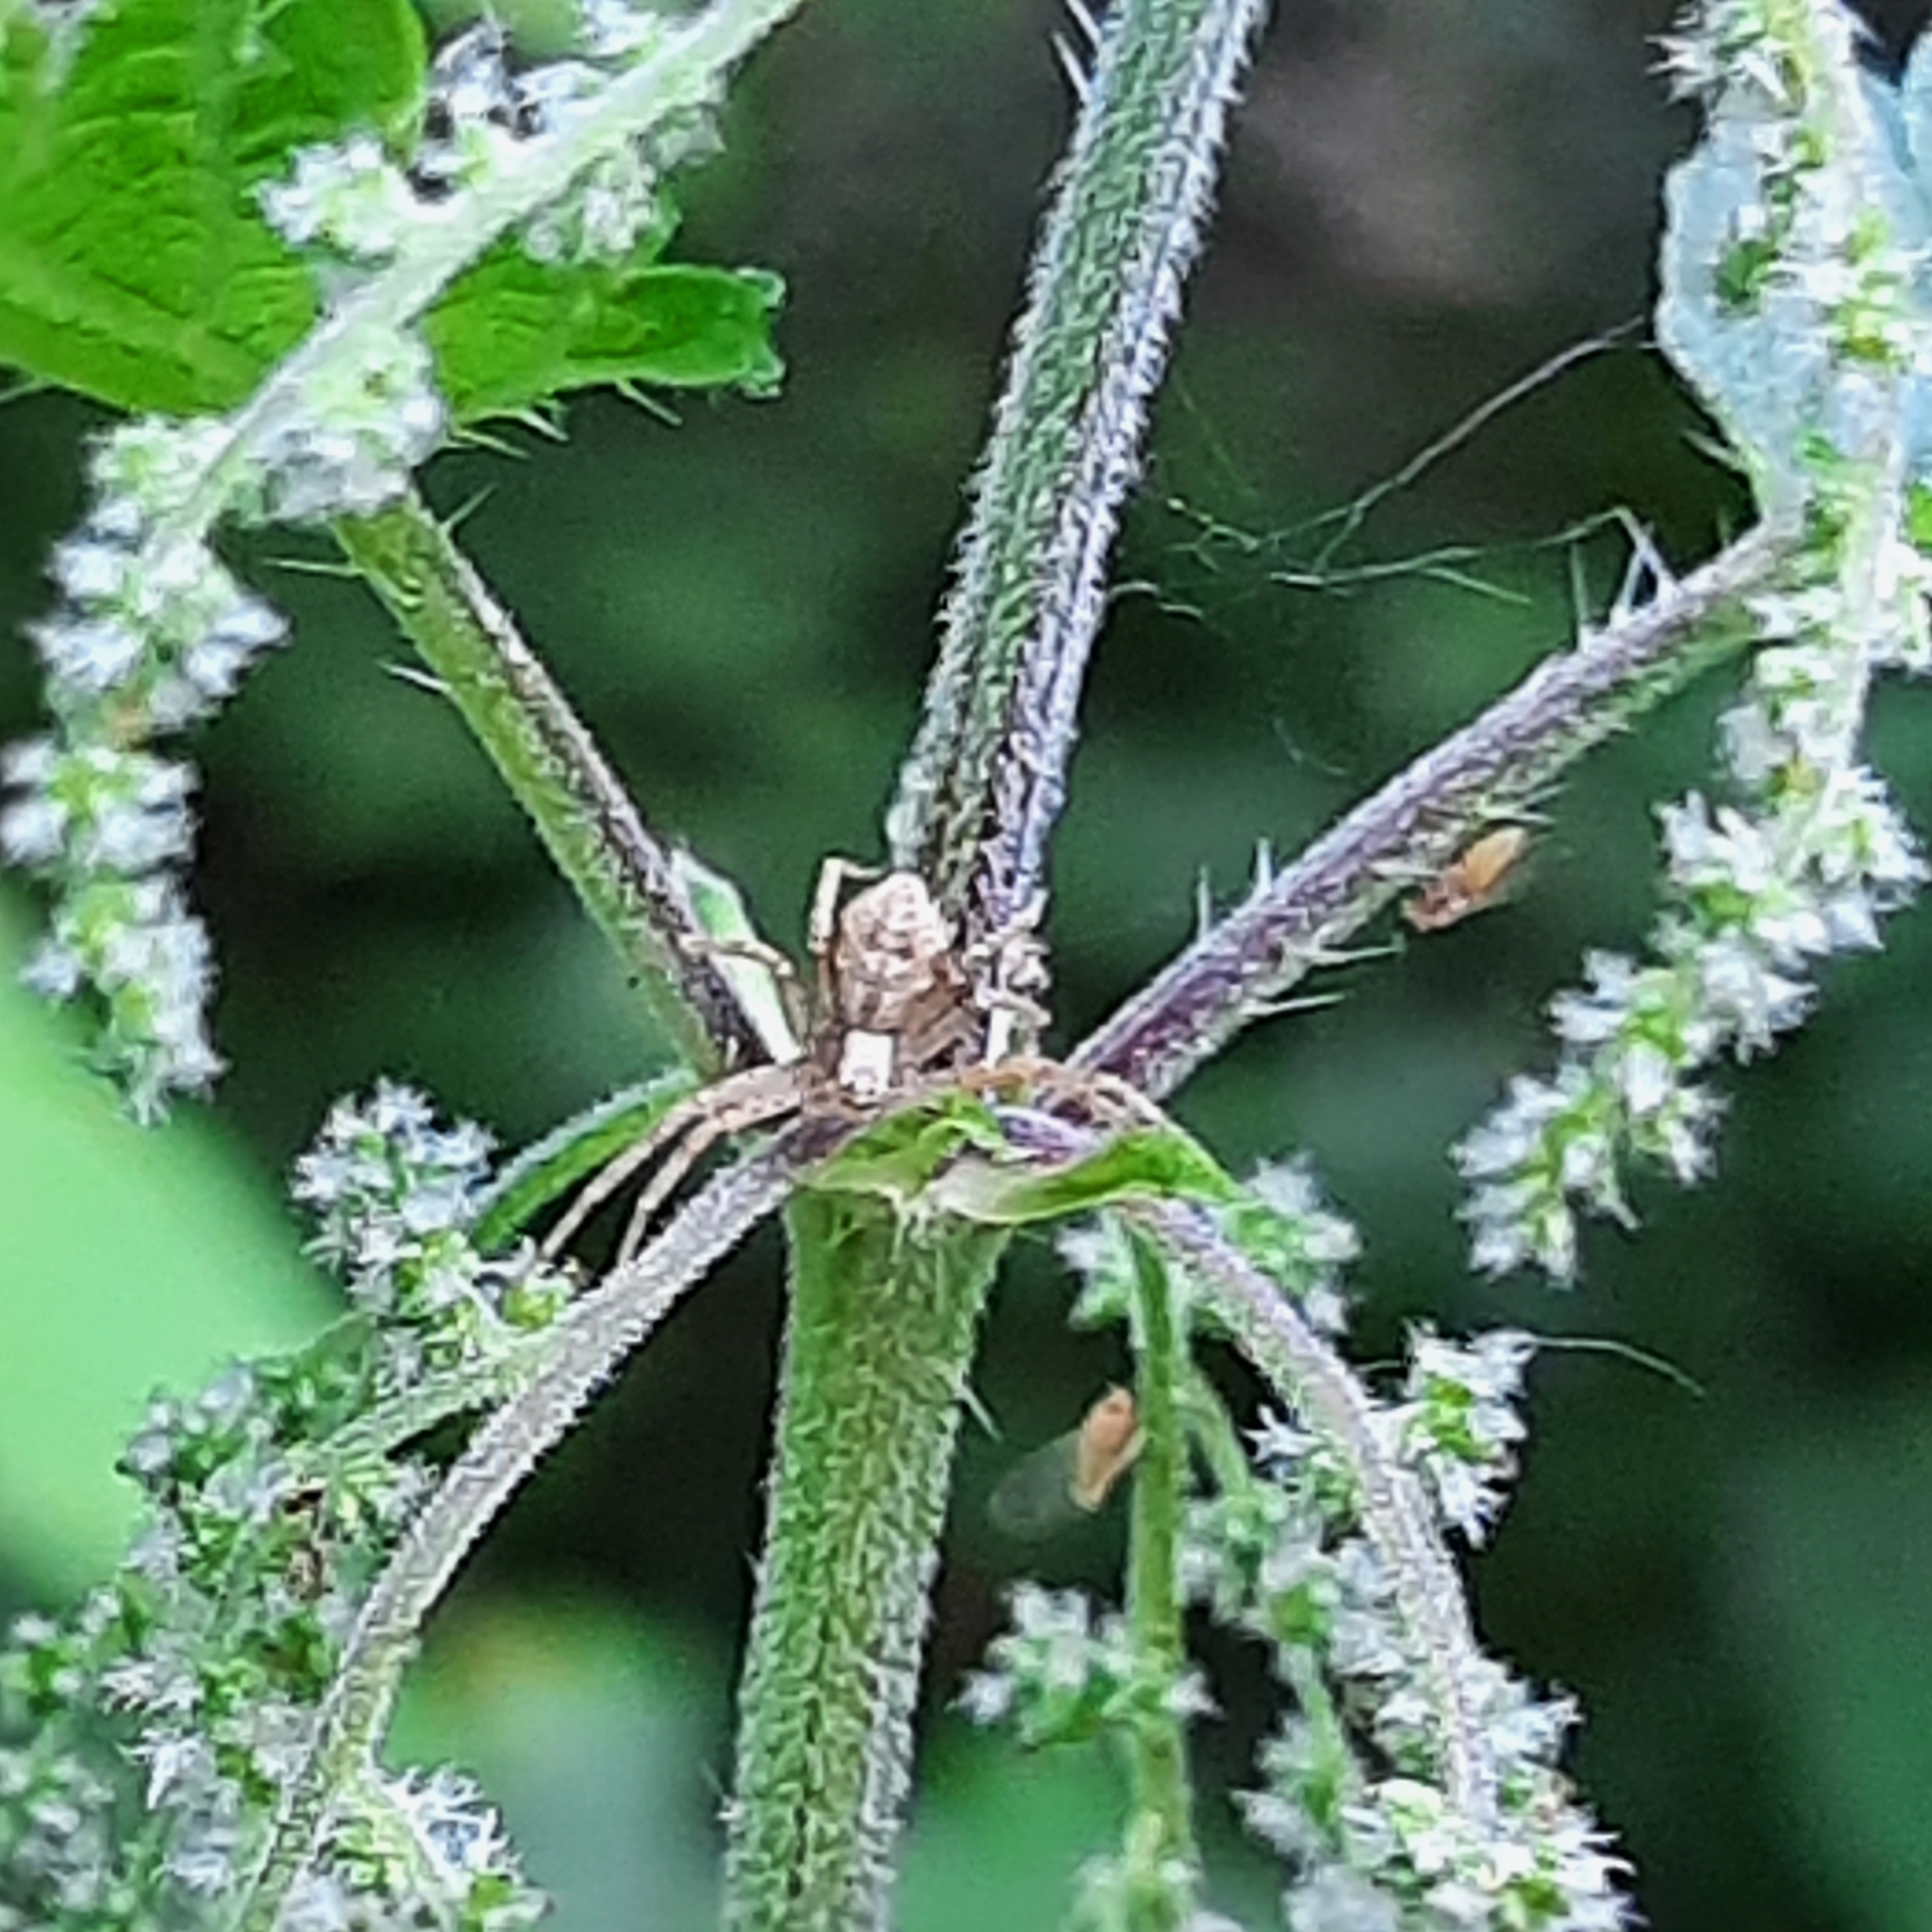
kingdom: Animalia
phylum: Arthropoda
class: Arachnida
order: Araneae
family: Philodromidae
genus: Philodromus
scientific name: Philodromus
